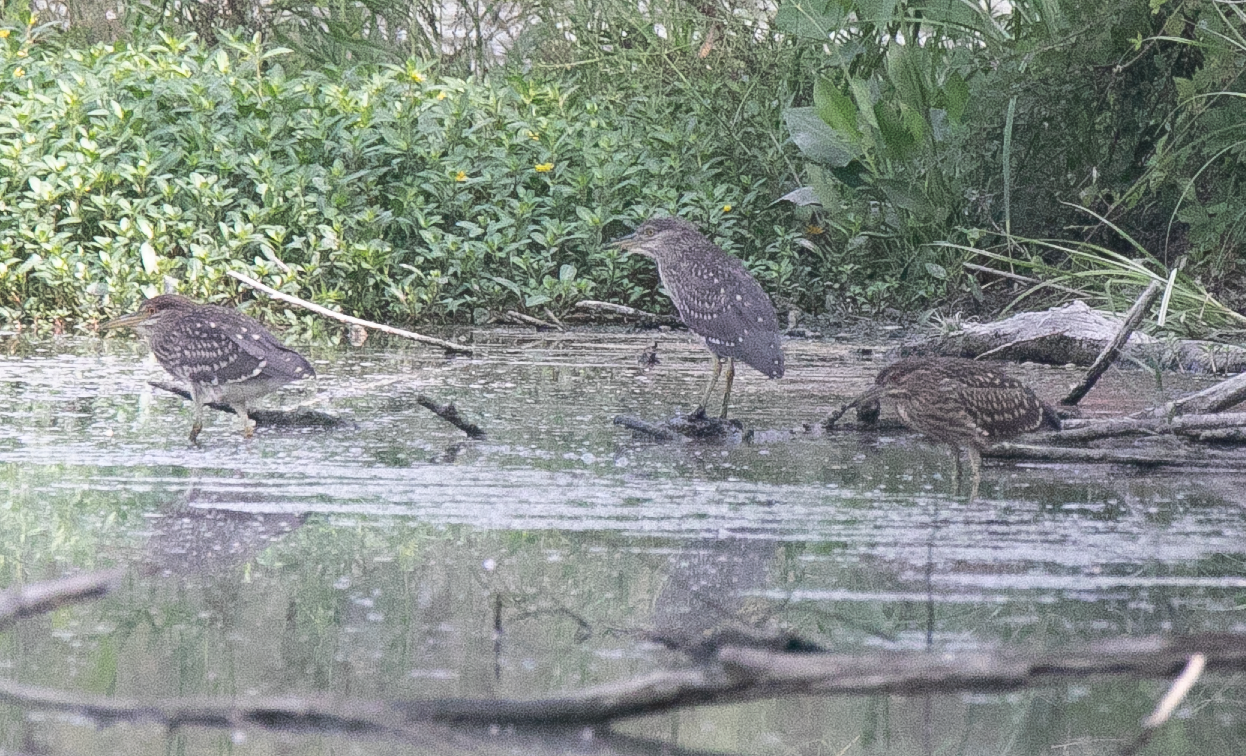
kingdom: Animalia
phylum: Chordata
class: Aves
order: Pelecaniformes
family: Ardeidae
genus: Nycticorax
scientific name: Nycticorax nycticorax
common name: Black-crowned night heron
